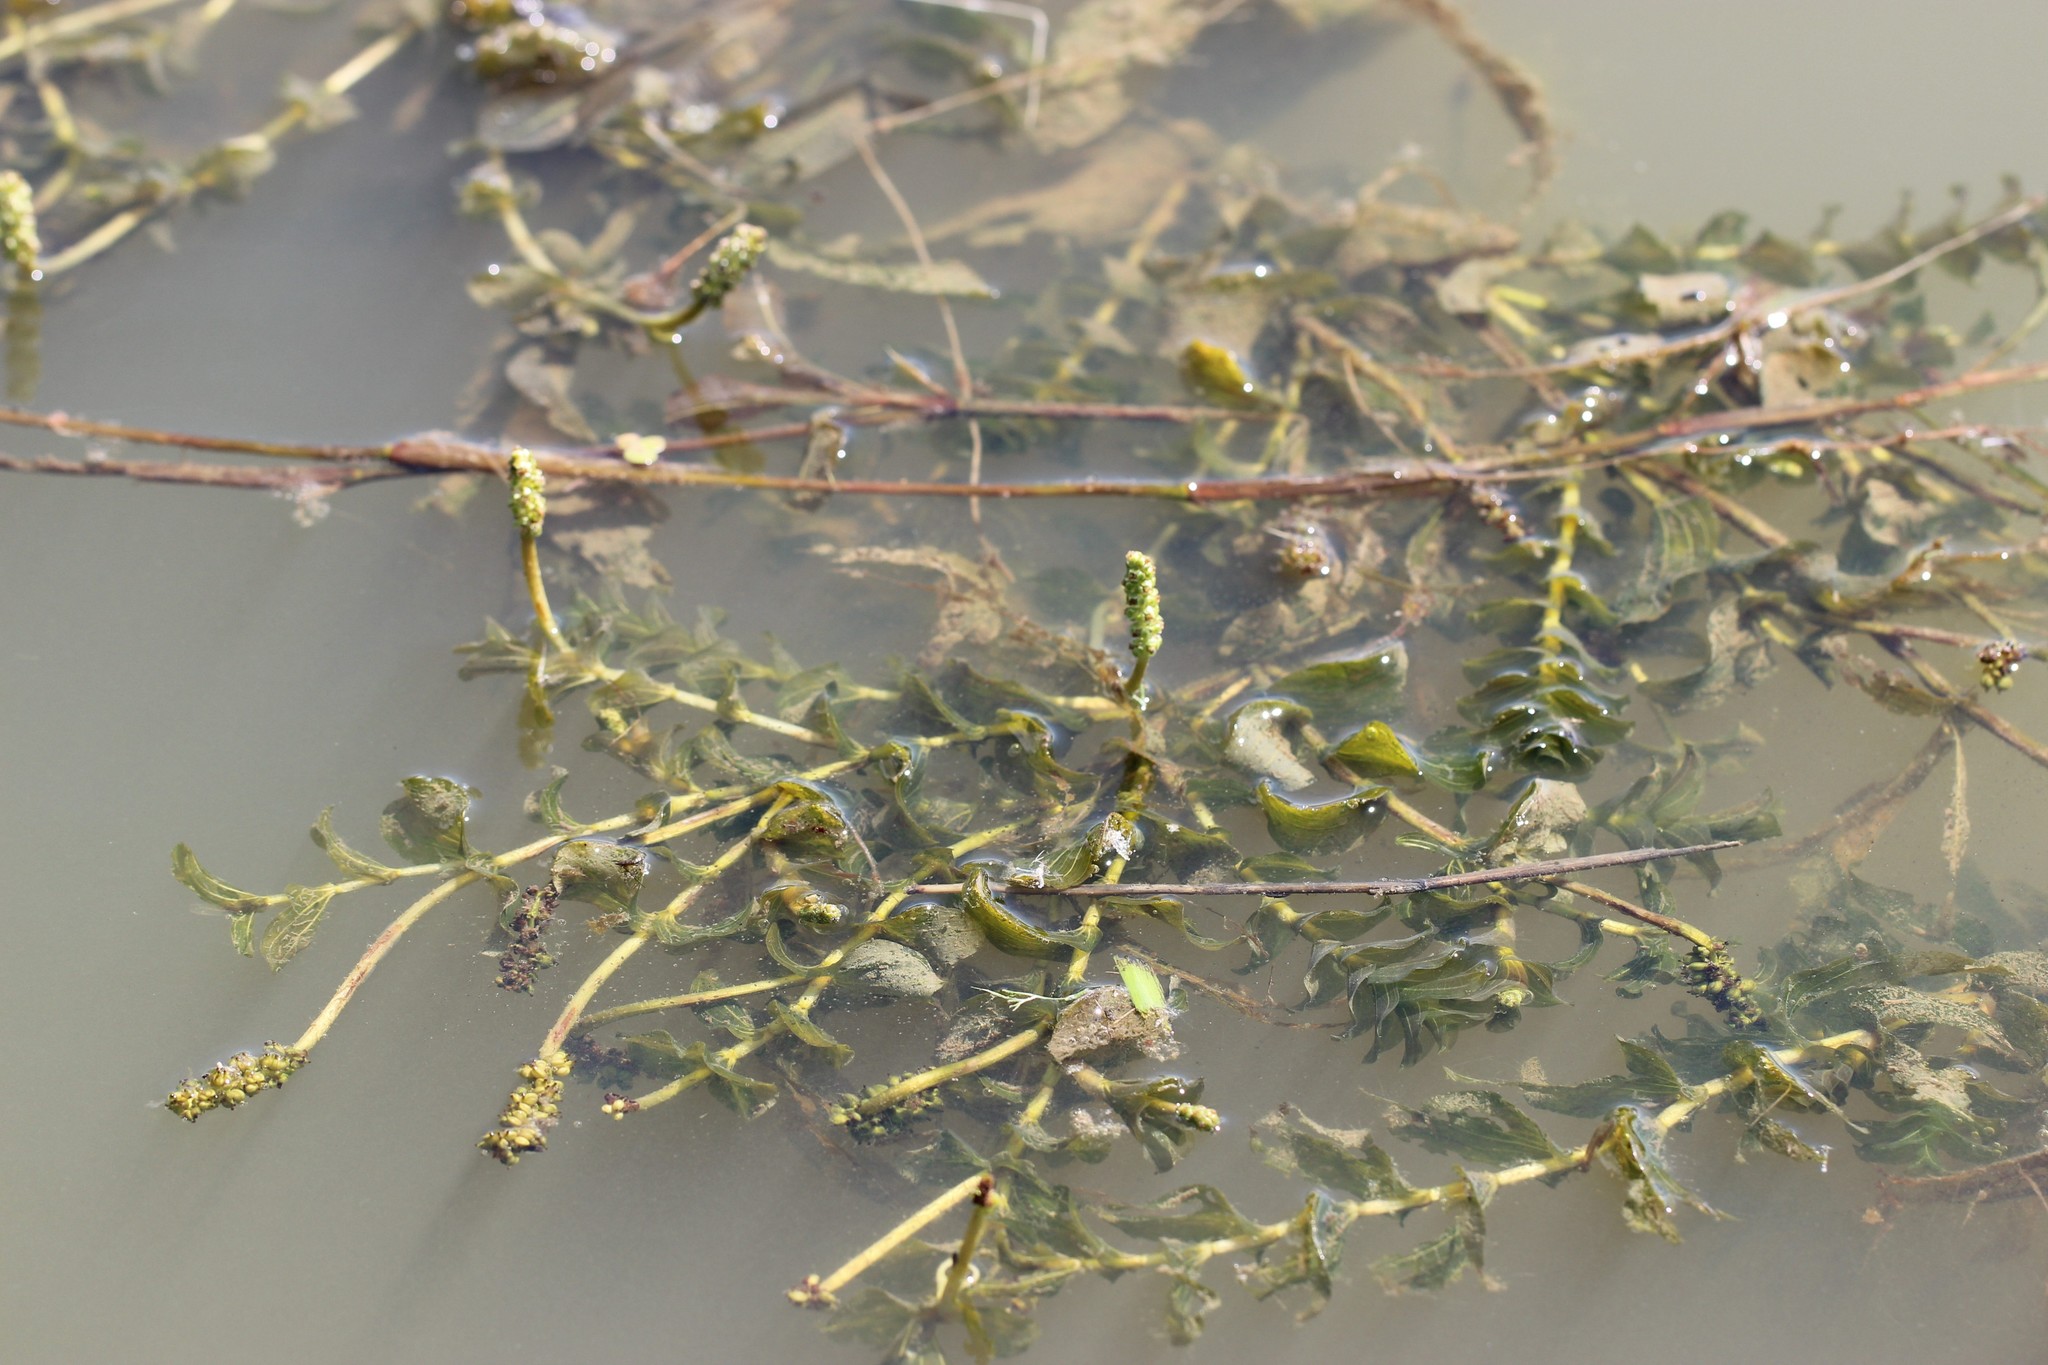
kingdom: Plantae
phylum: Tracheophyta
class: Liliopsida
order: Alismatales
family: Potamogetonaceae
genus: Potamogeton
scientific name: Potamogeton perfoliatus
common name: Perfoliate pondweed
